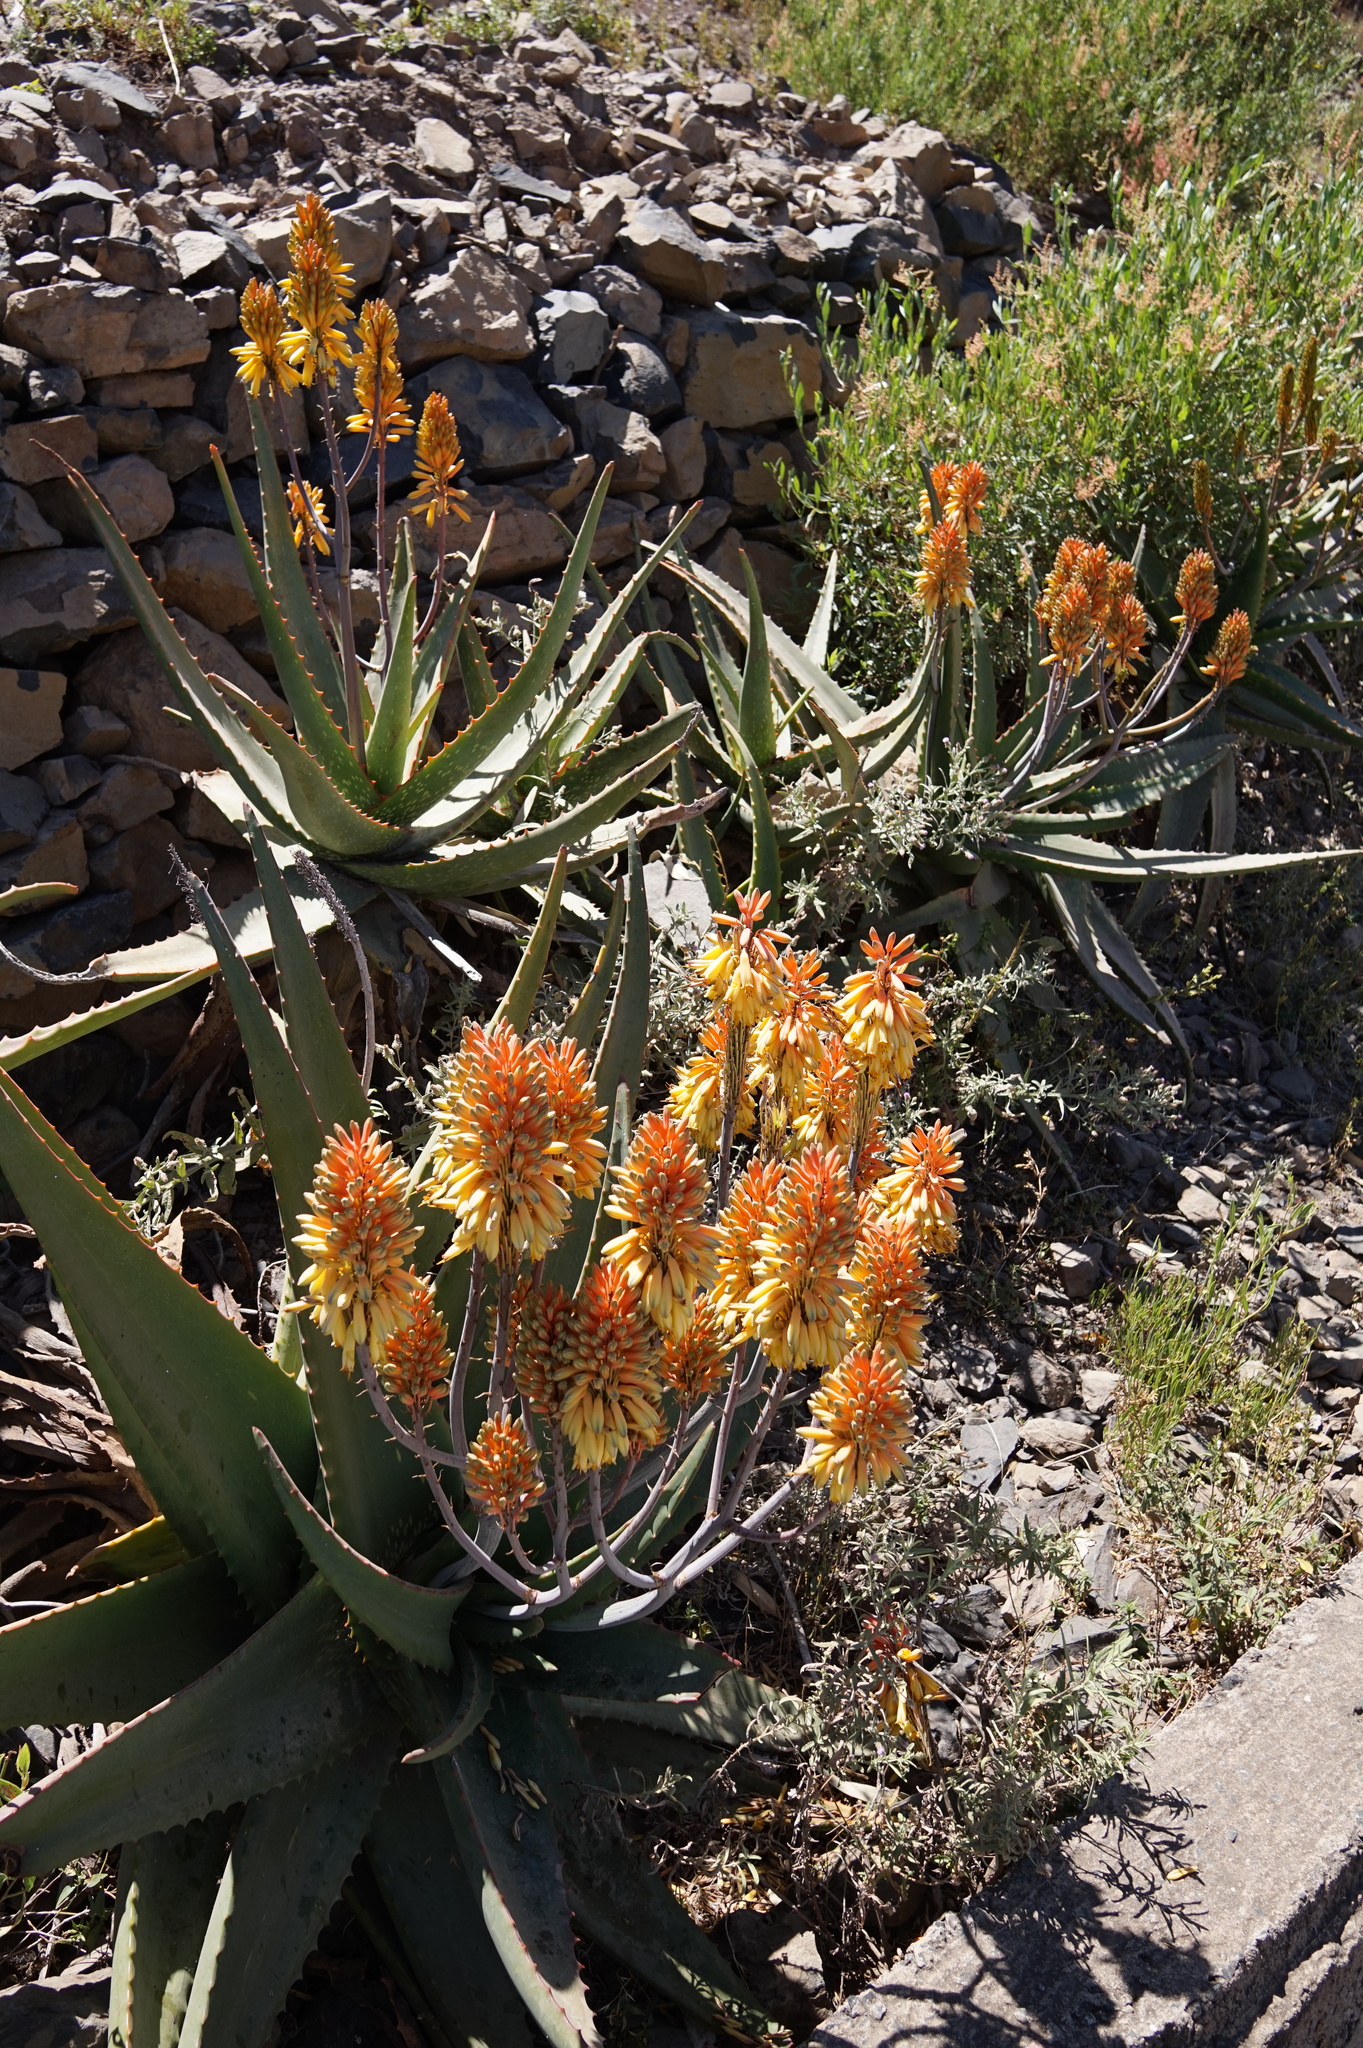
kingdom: Plantae
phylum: Tracheophyta
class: Liliopsida
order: Asparagales
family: Asphodelaceae
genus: Aloe
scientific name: Aloe camperi
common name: Camper's aloe
